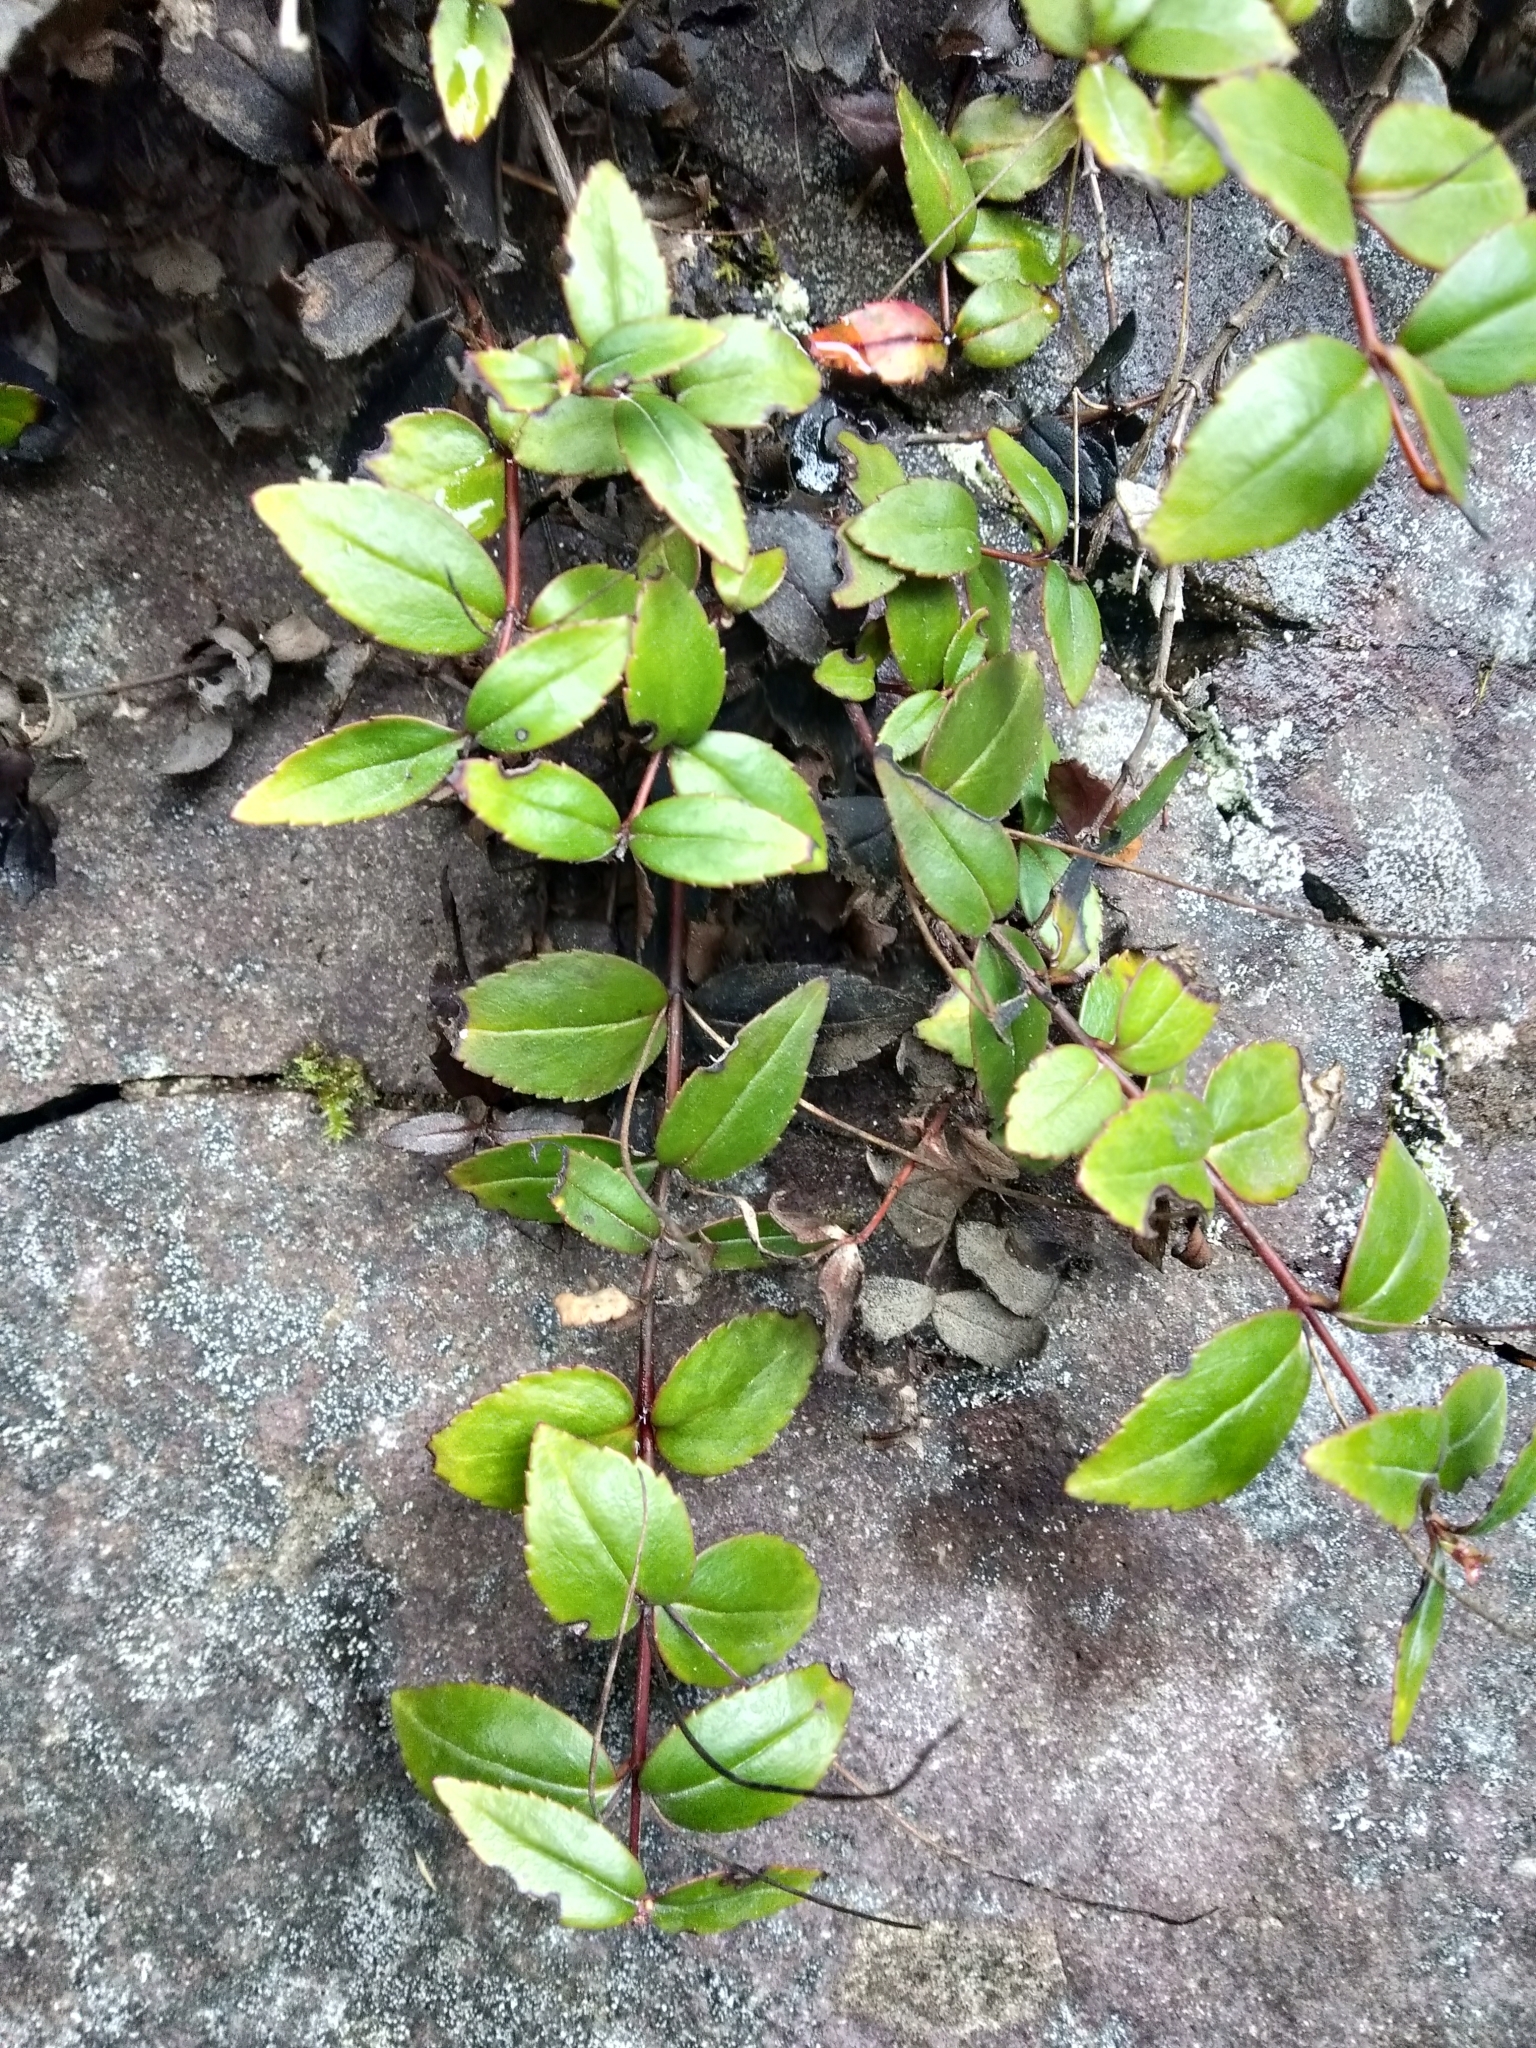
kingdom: Plantae
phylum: Tracheophyta
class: Magnoliopsida
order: Lamiales
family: Plantaginaceae
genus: Veronica
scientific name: Veronica lanceolata
